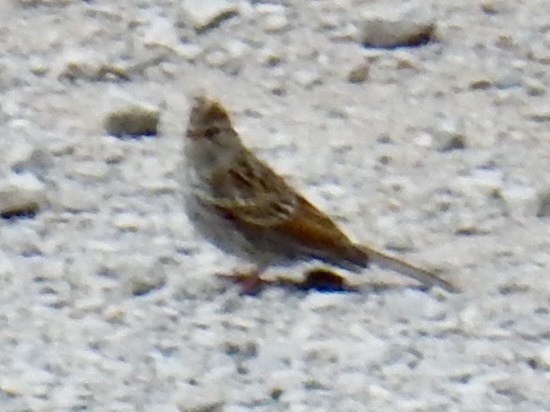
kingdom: Animalia
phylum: Chordata
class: Aves
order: Passeriformes
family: Passerellidae
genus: Spizella
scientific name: Spizella passerina
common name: Chipping sparrow
